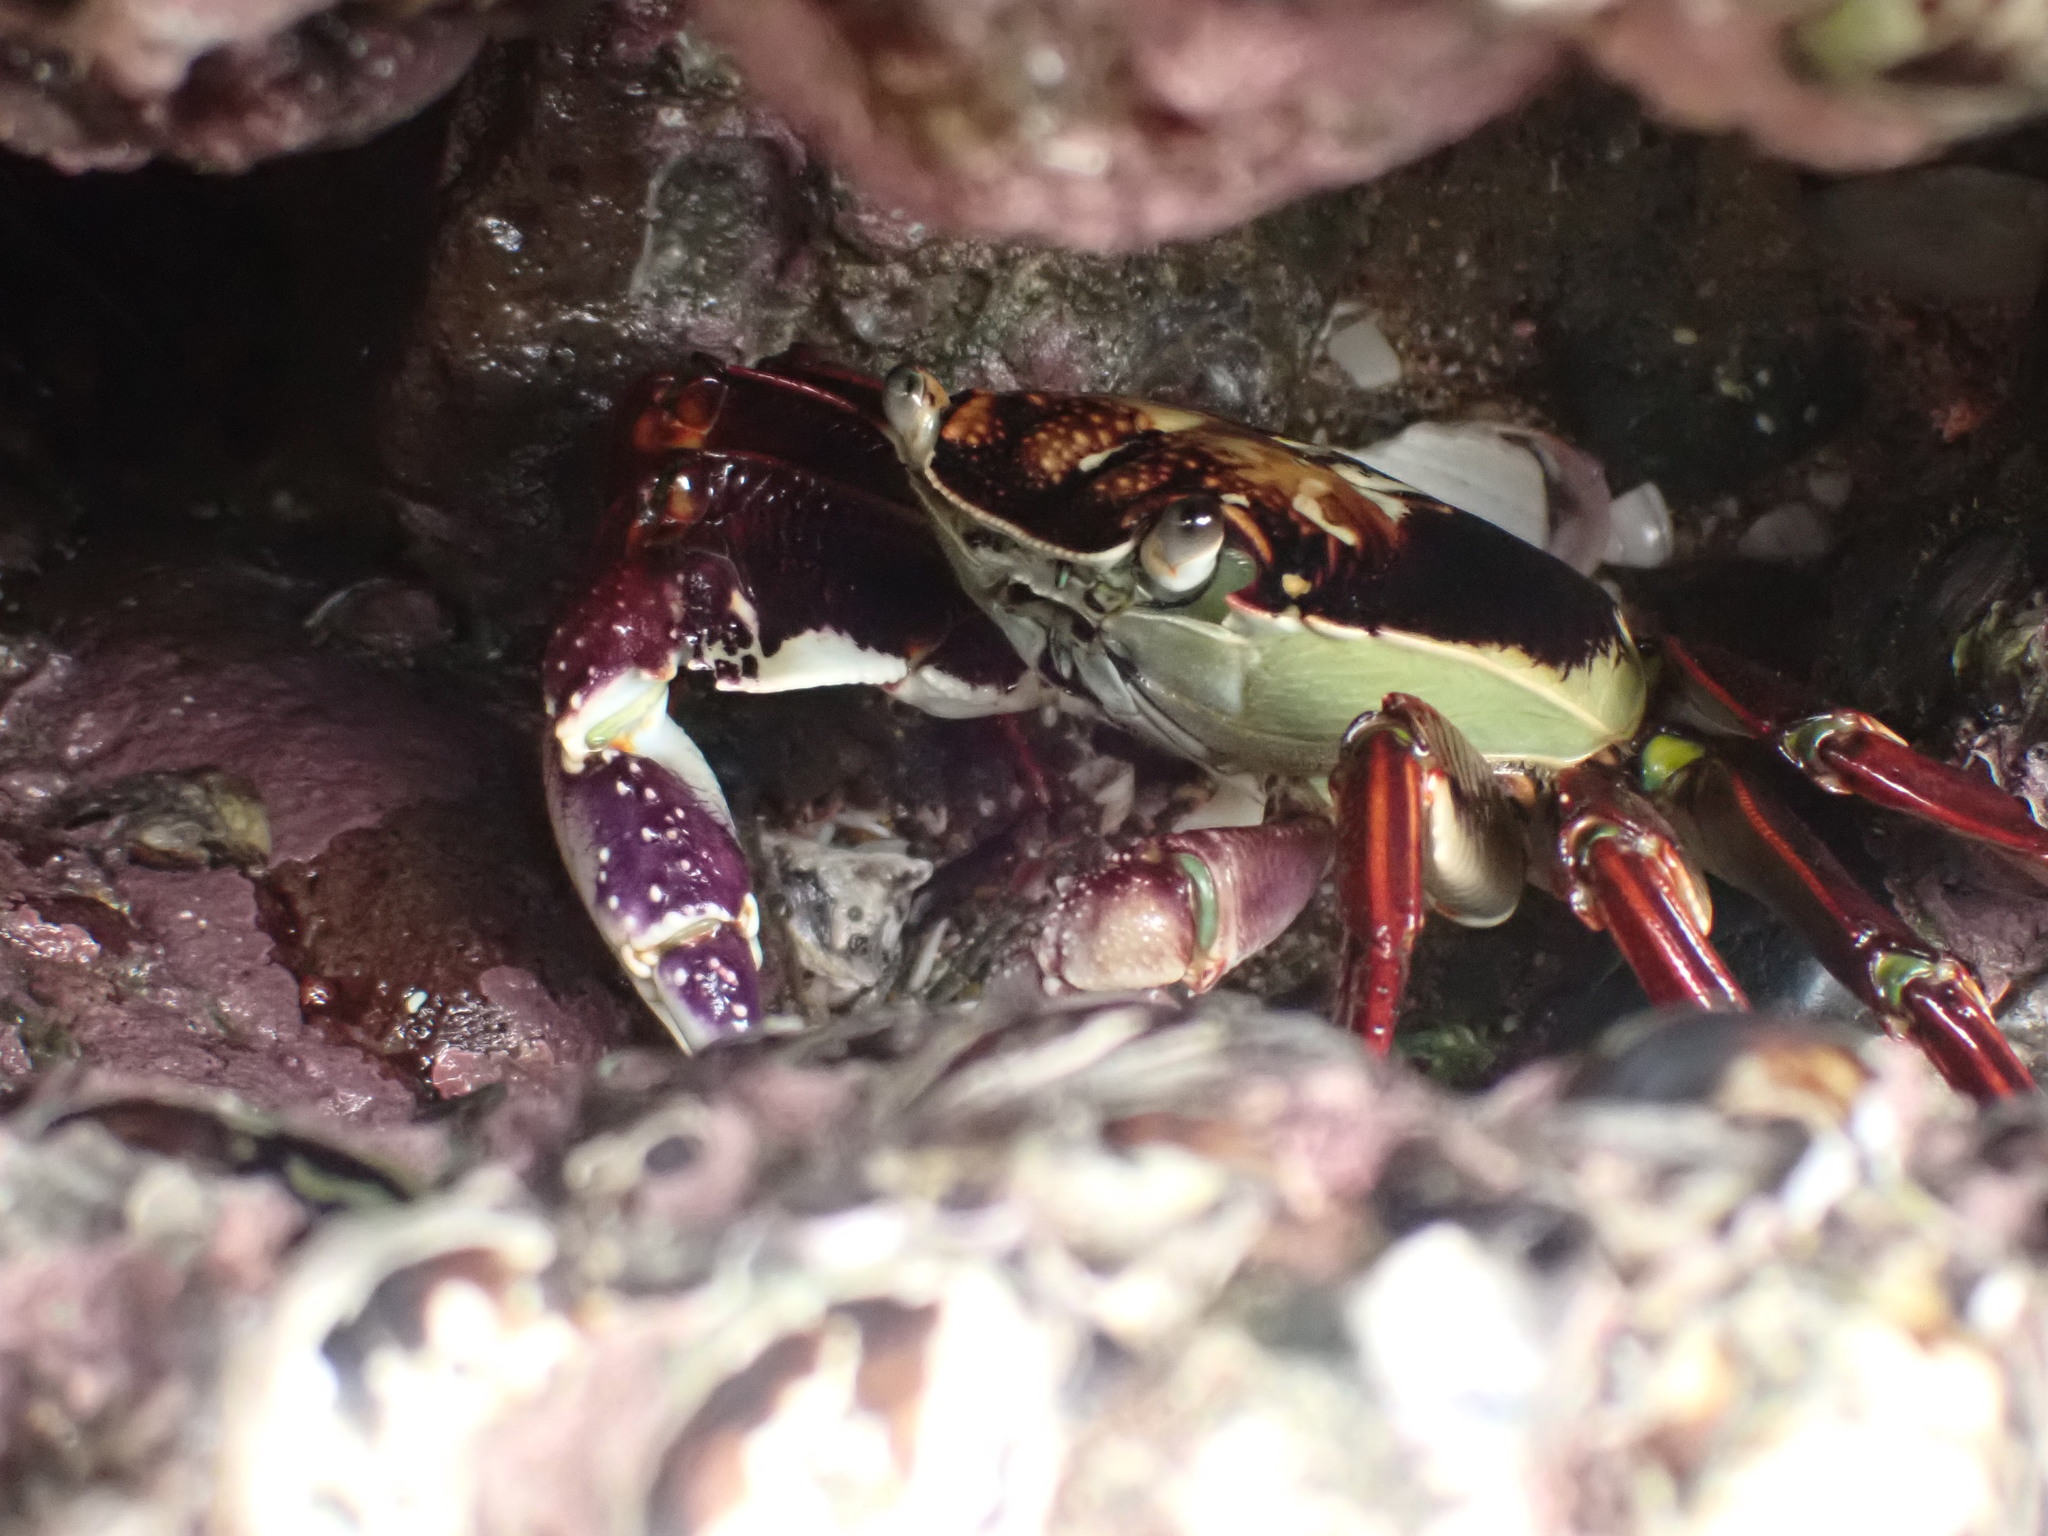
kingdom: Animalia
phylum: Arthropoda
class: Malacostraca
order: Decapoda
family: Grapsidae
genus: Leptograpsus
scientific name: Leptograpsus variegatus
